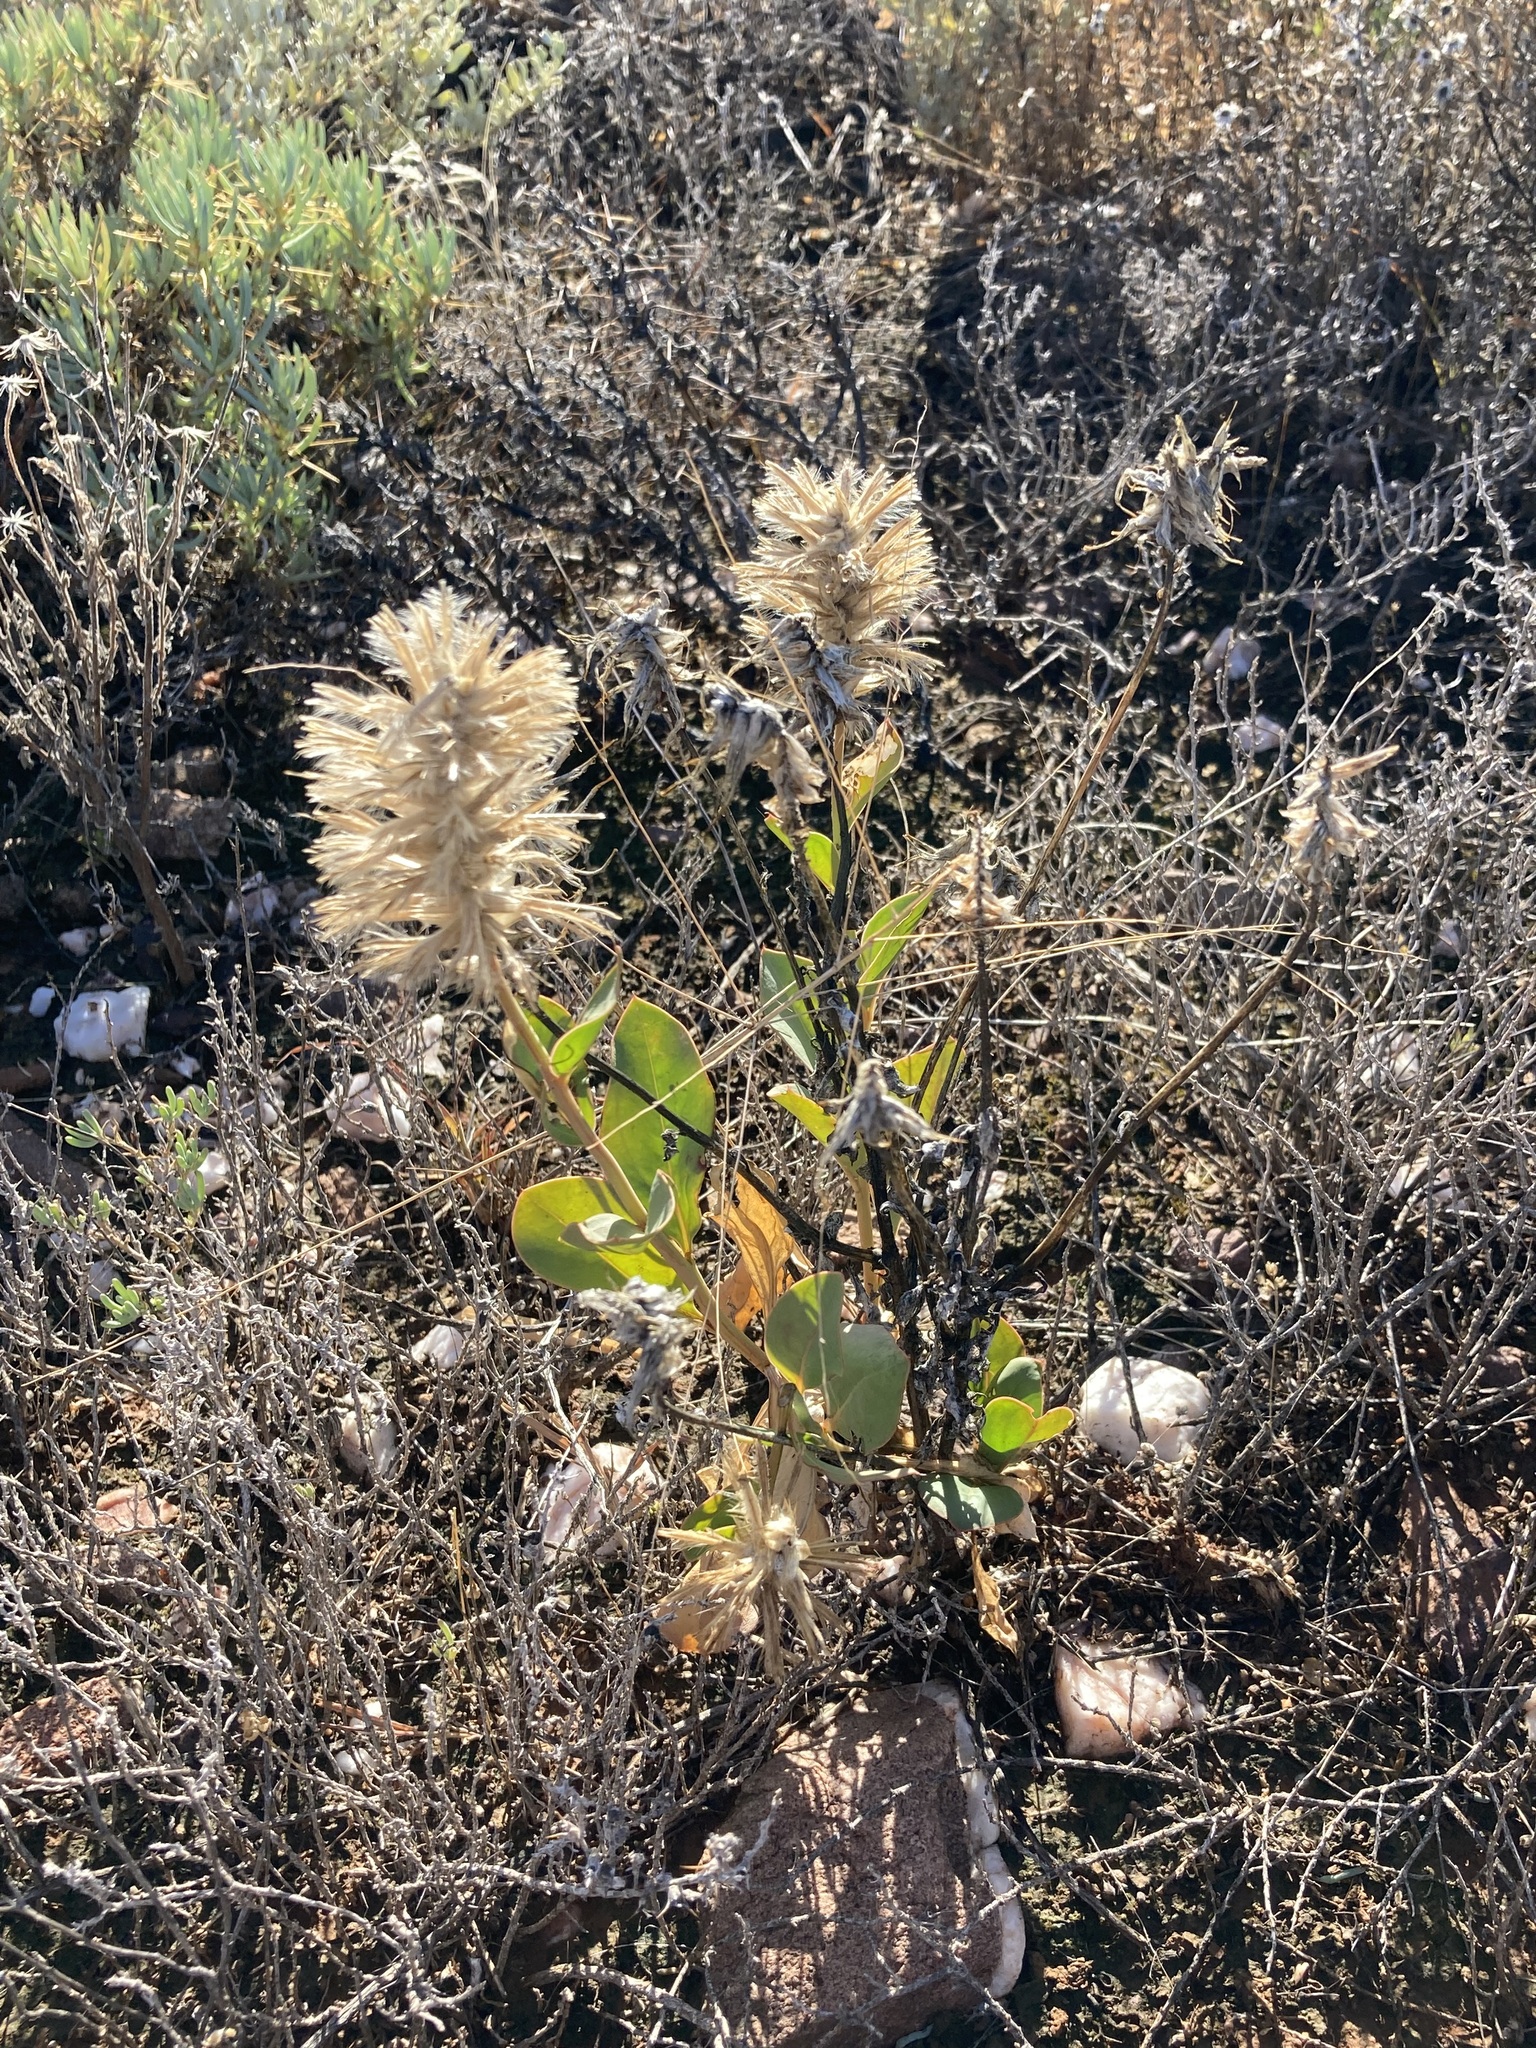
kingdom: Plantae
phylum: Tracheophyta
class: Magnoliopsida
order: Caryophyllales
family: Amaranthaceae
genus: Ptilotus
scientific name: Ptilotus nobilis
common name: Regal-foxtail
